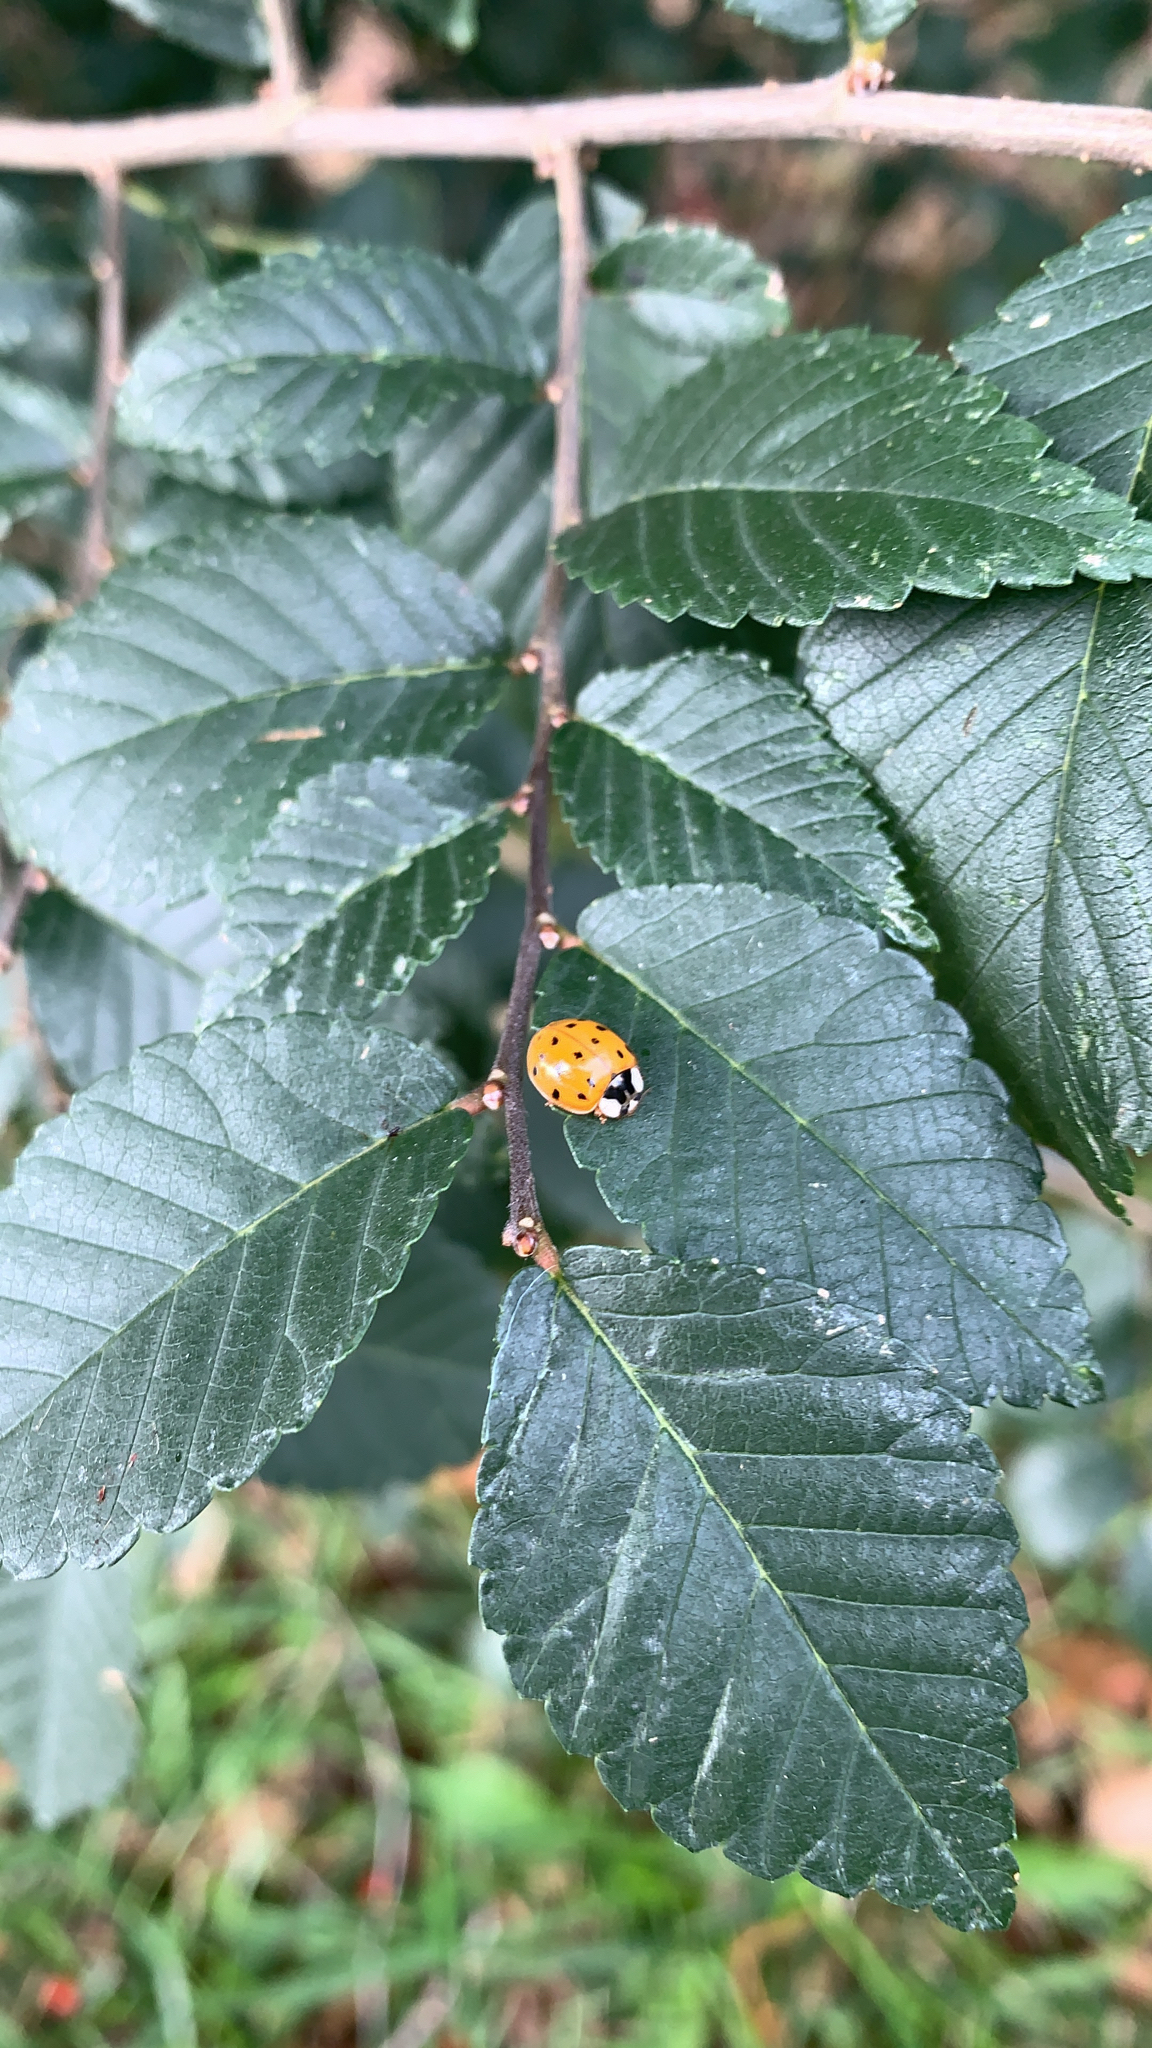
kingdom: Animalia
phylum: Arthropoda
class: Insecta
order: Coleoptera
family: Coccinellidae
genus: Harmonia
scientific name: Harmonia axyridis
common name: Harlequin ladybird
